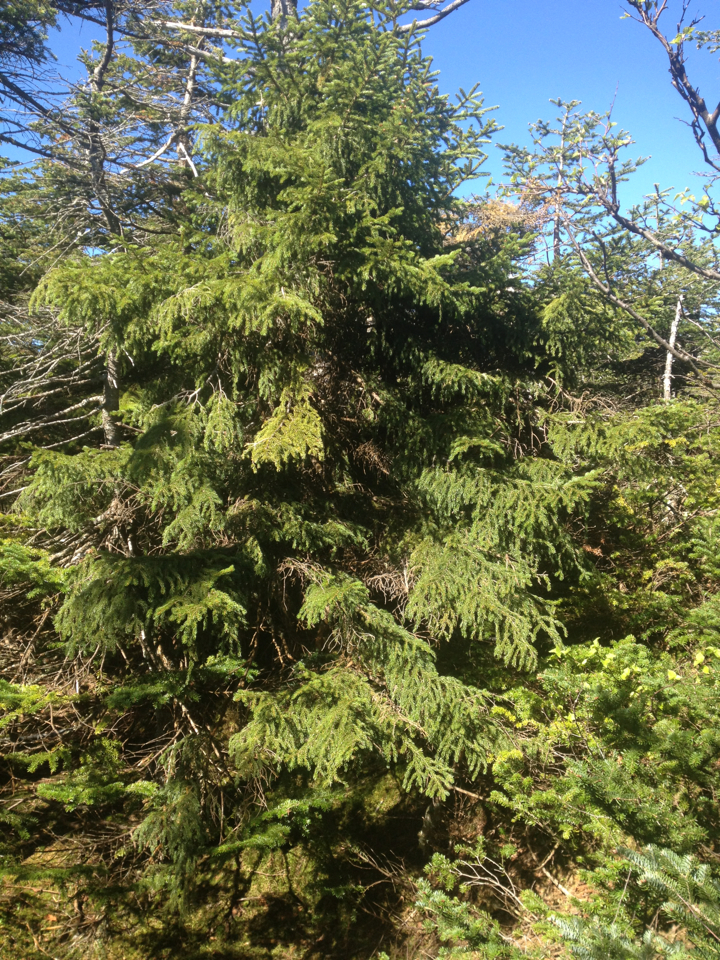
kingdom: Plantae
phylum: Tracheophyta
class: Pinopsida
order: Pinales
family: Pinaceae
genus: Picea
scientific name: Picea rubens
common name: Red spruce
